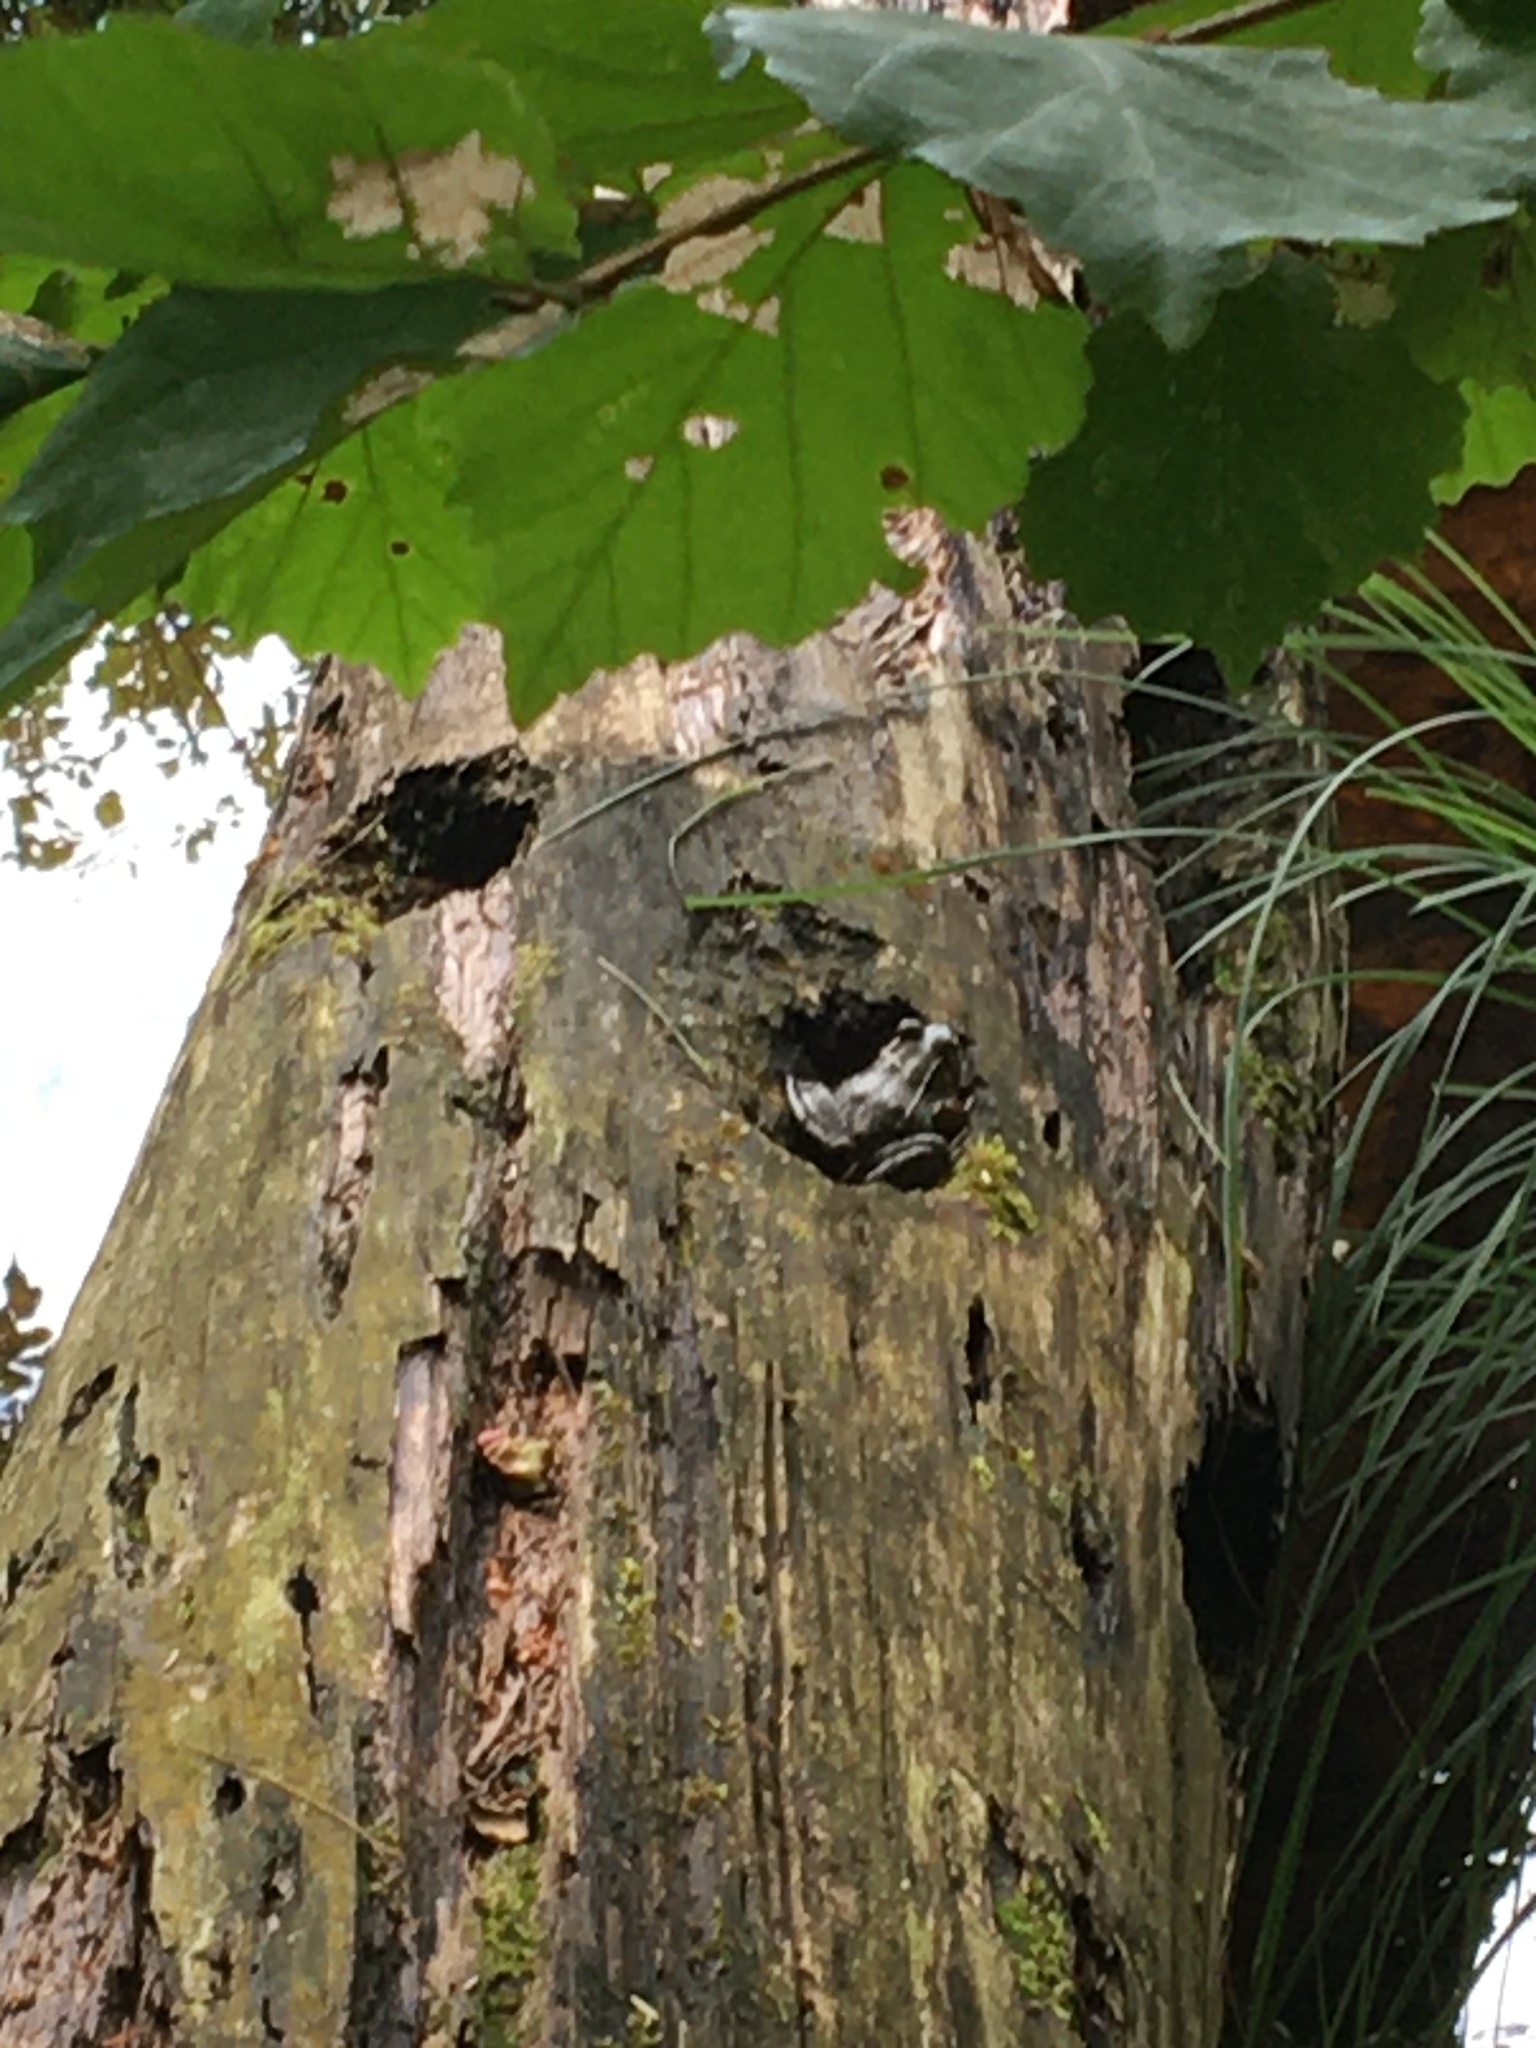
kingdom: Animalia
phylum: Chordata
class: Amphibia
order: Anura
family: Ranidae
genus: Lithobates
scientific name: Lithobates clamitans
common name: Green frog
